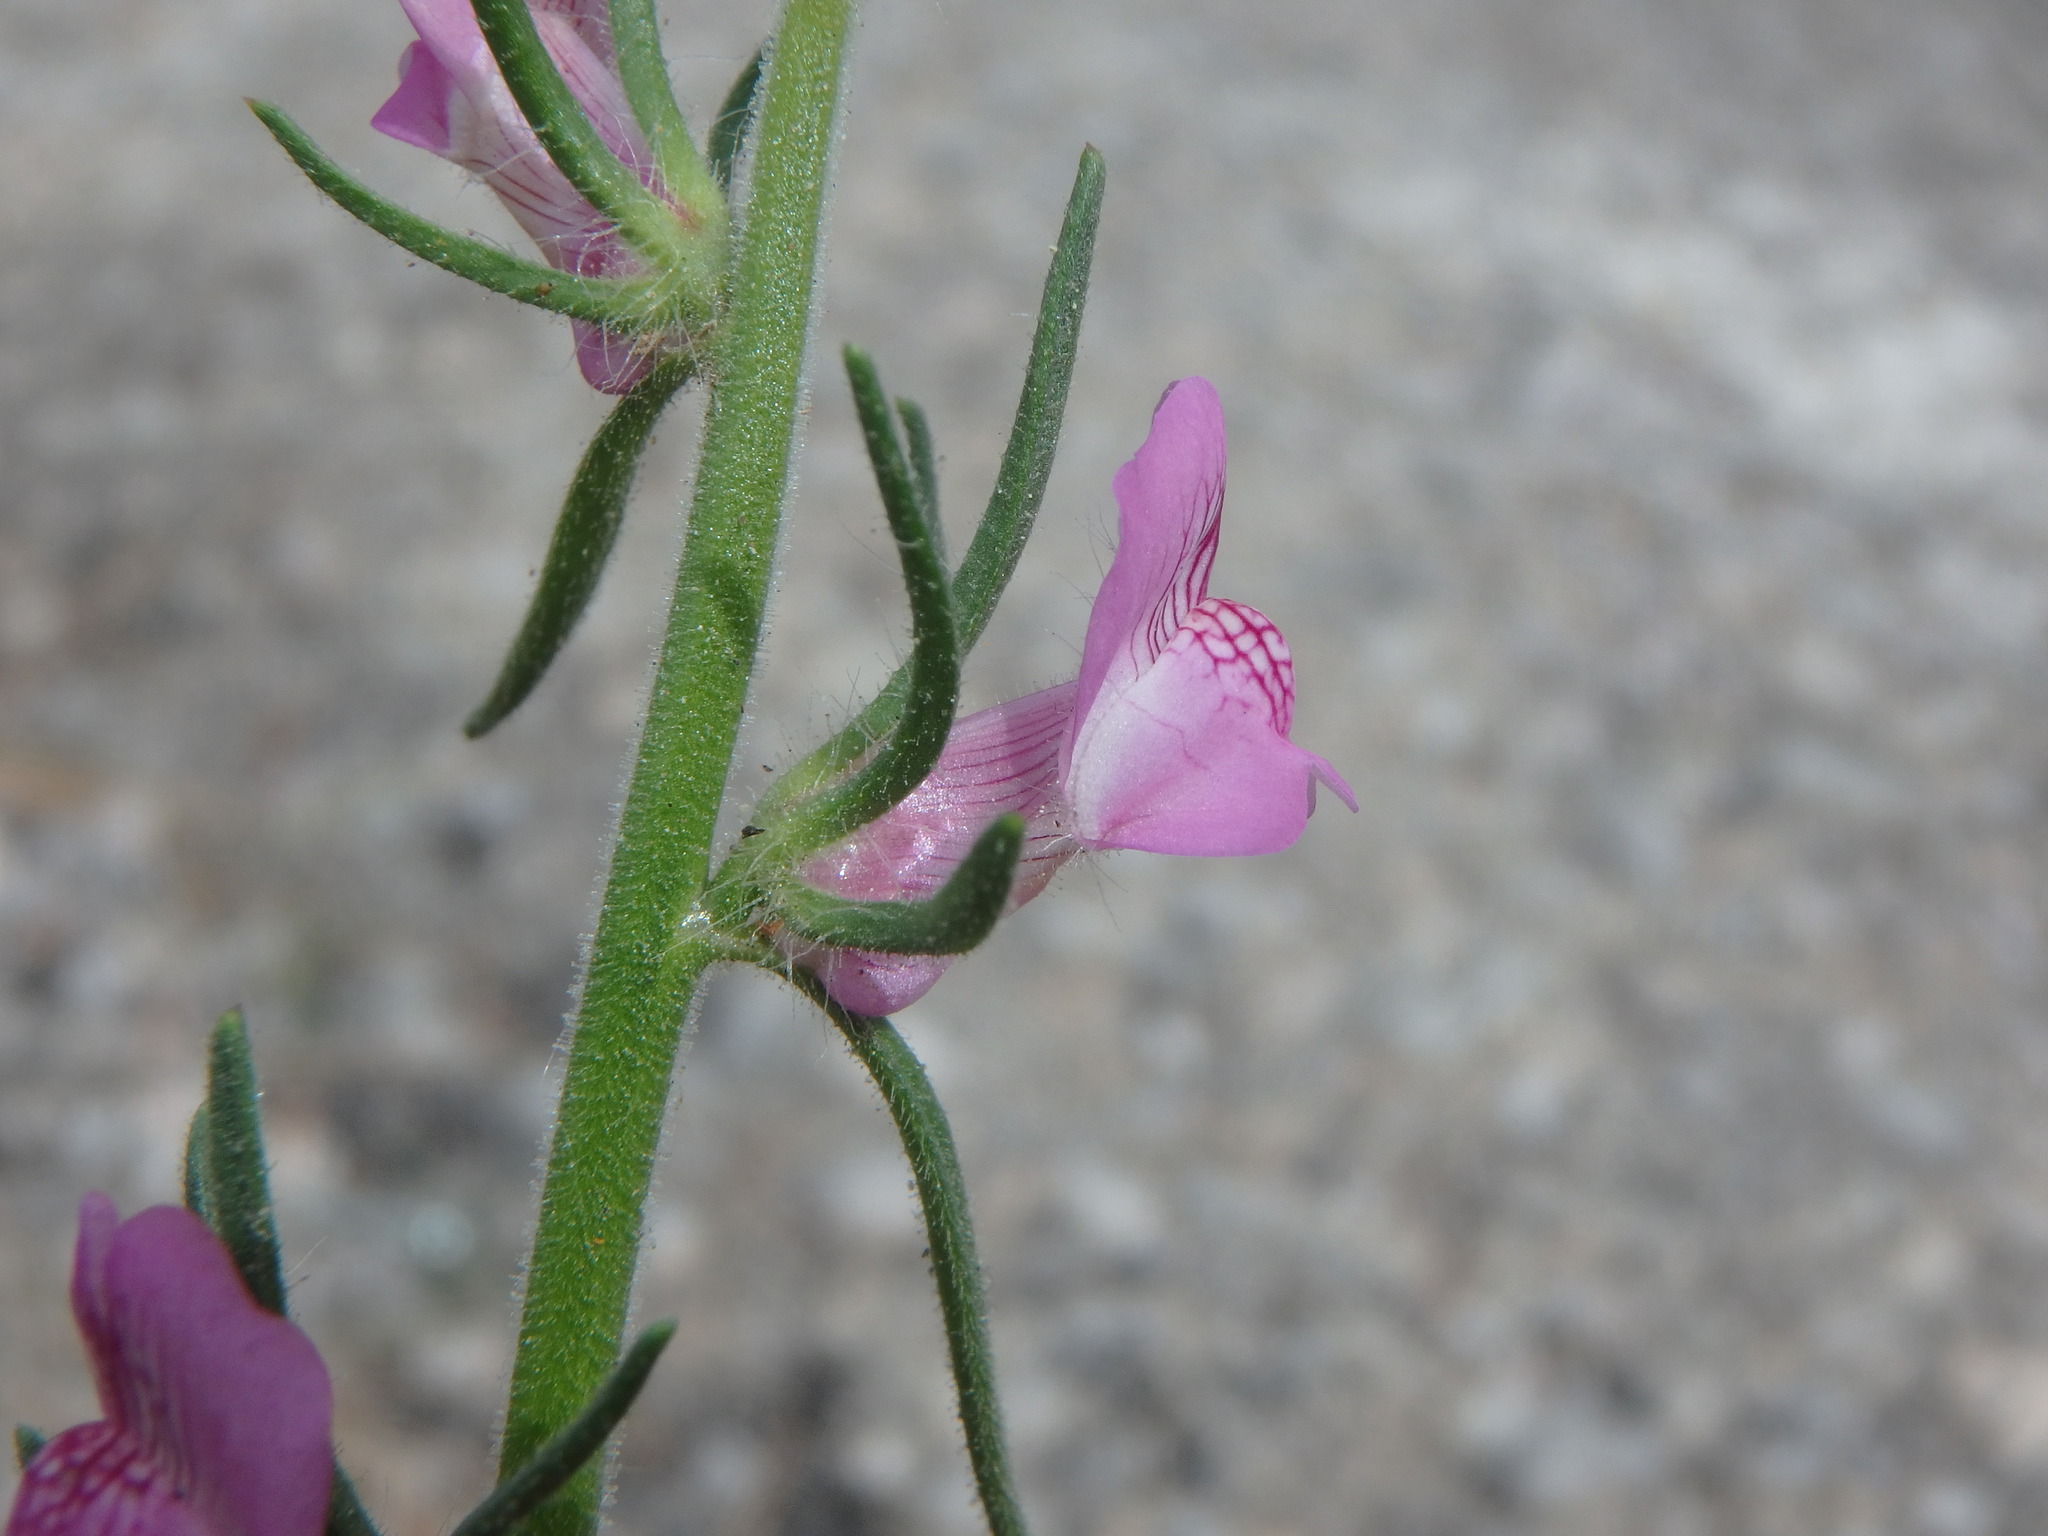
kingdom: Plantae
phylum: Tracheophyta
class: Magnoliopsida
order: Lamiales
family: Plantaginaceae
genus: Misopates
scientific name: Misopates orontium
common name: Weasel's-snout
